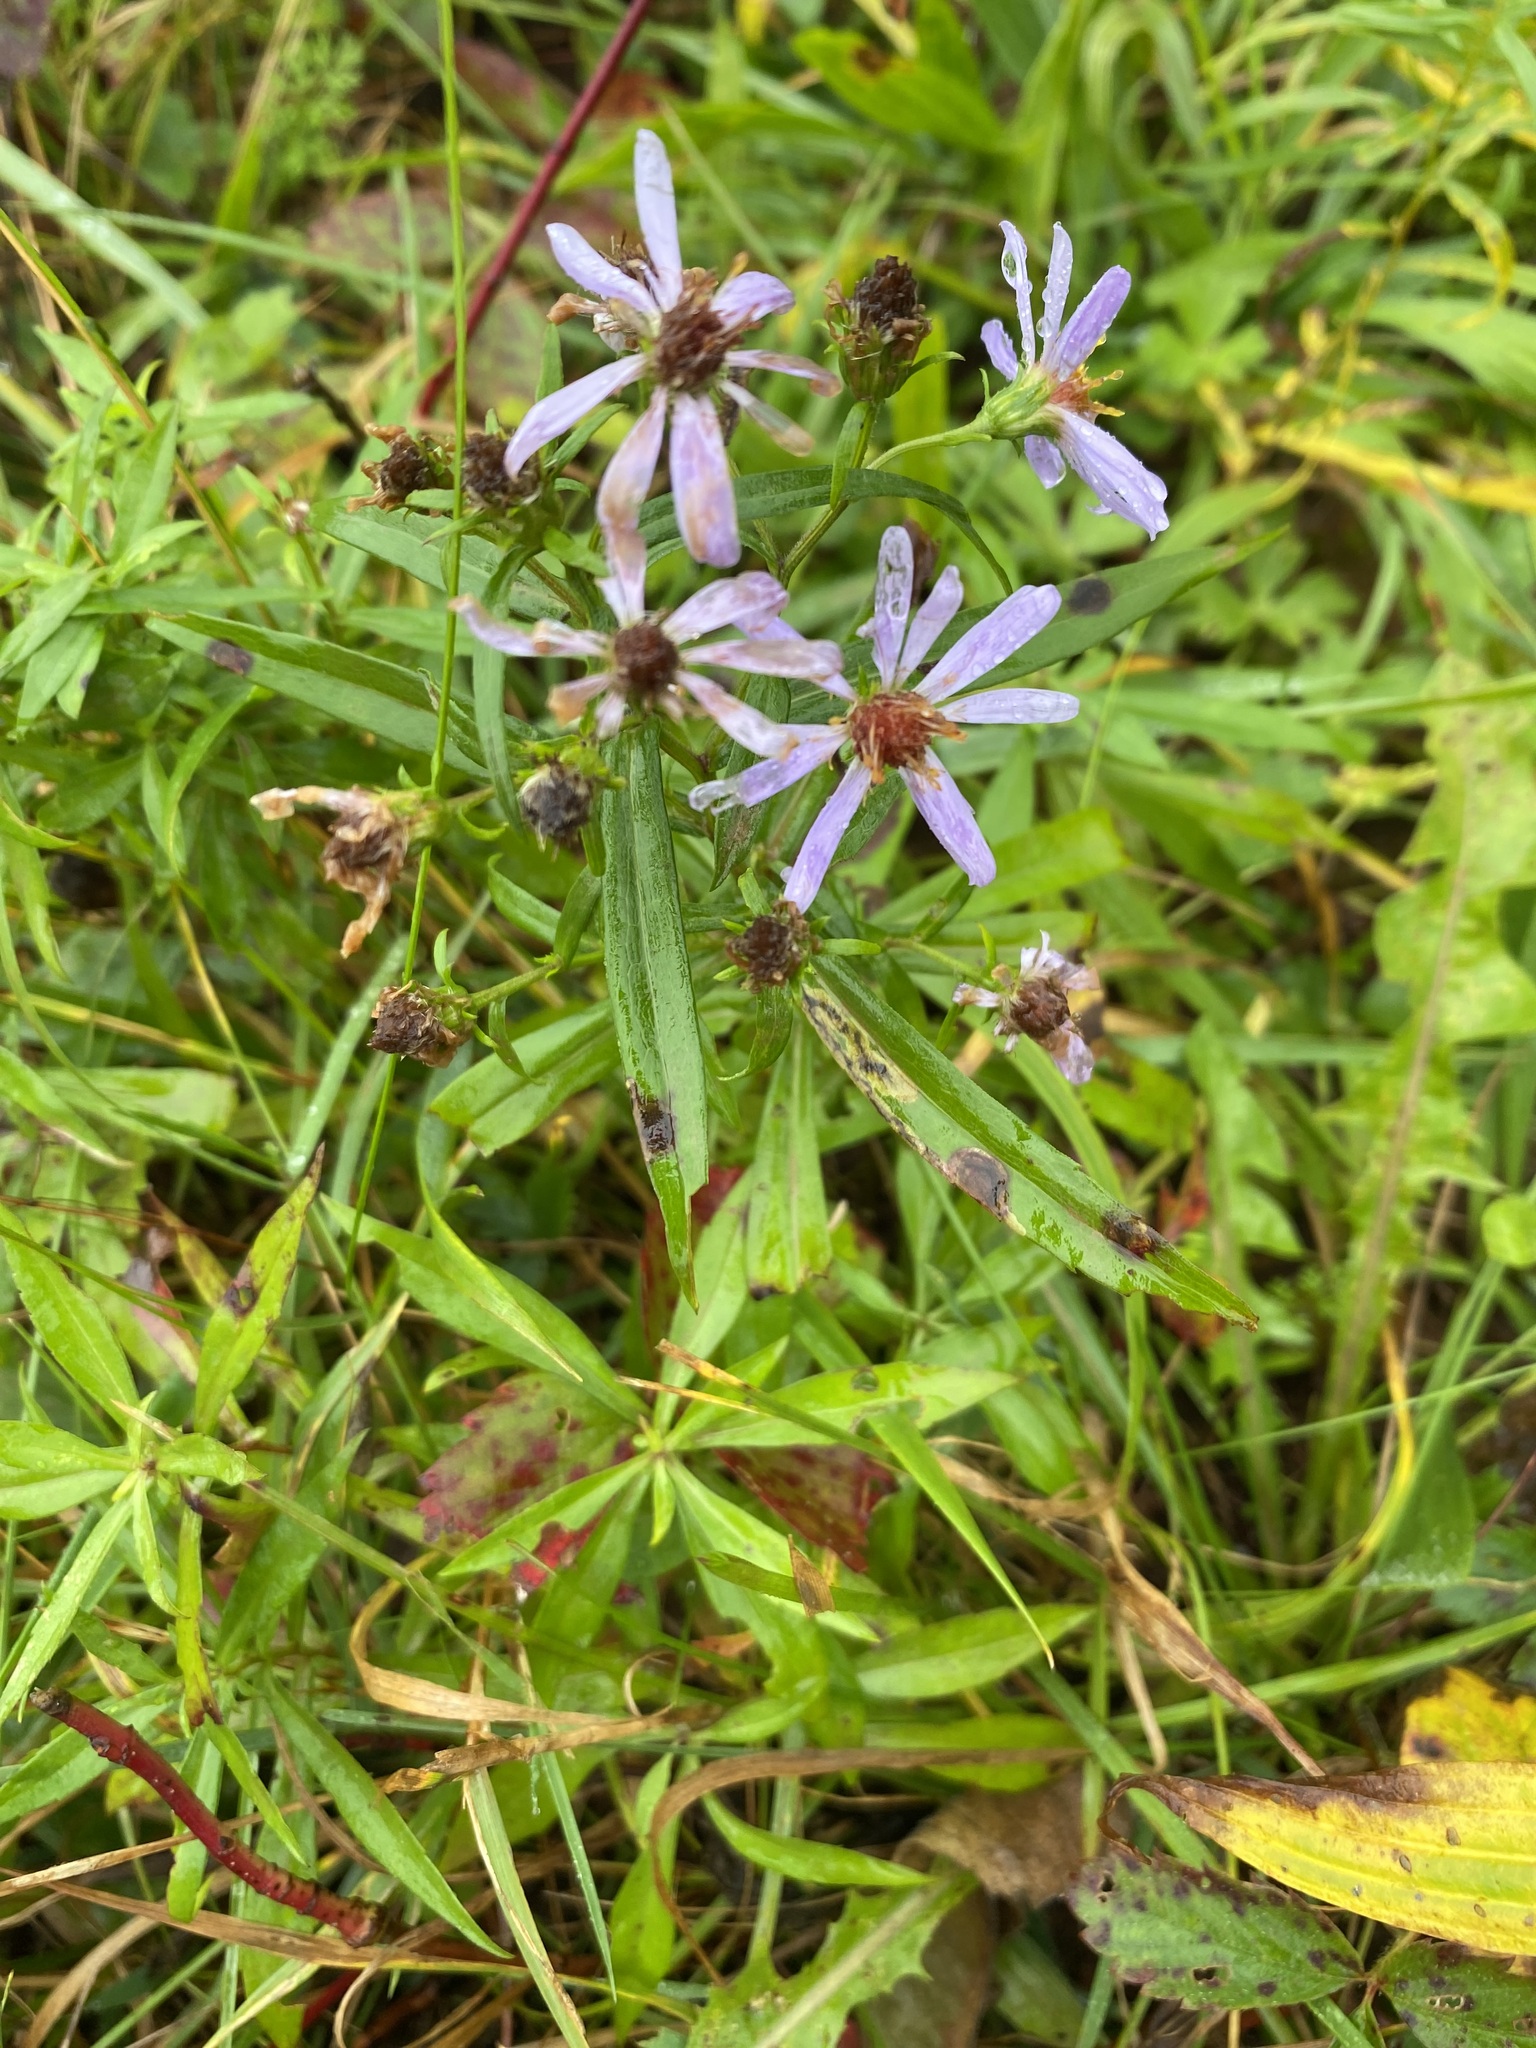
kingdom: Plantae
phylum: Tracheophyta
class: Magnoliopsida
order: Asterales
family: Asteraceae
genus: Symphyotrichum
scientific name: Symphyotrichum novi-belgii
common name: Michaelmas daisy
